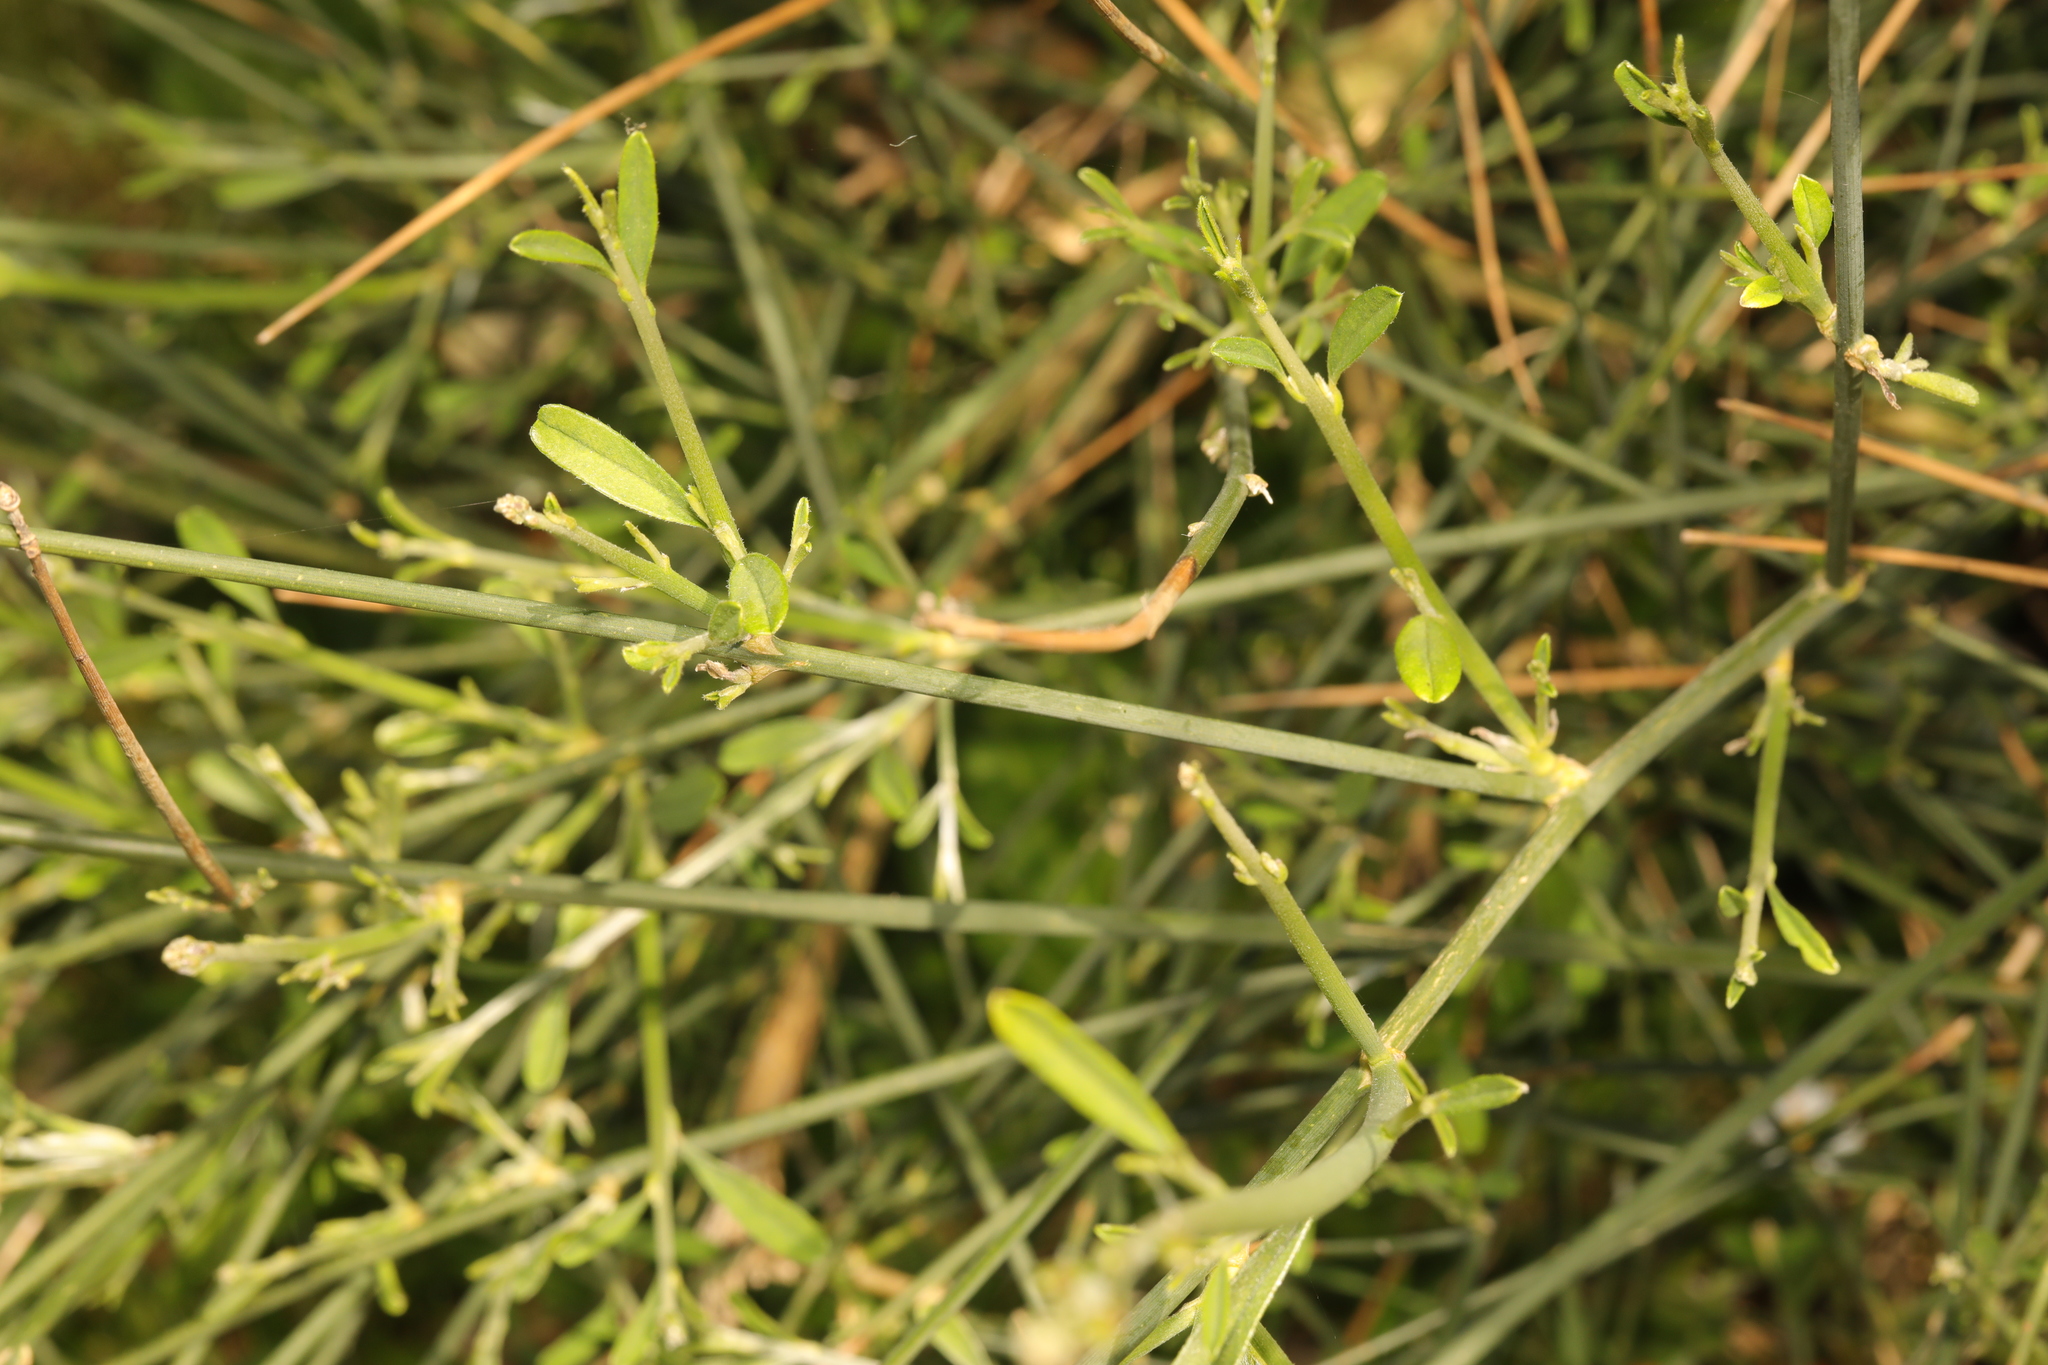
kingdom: Plantae
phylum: Tracheophyta
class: Magnoliopsida
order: Fabales
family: Fabaceae
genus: Spartium
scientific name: Spartium junceum
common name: Spanish broom
